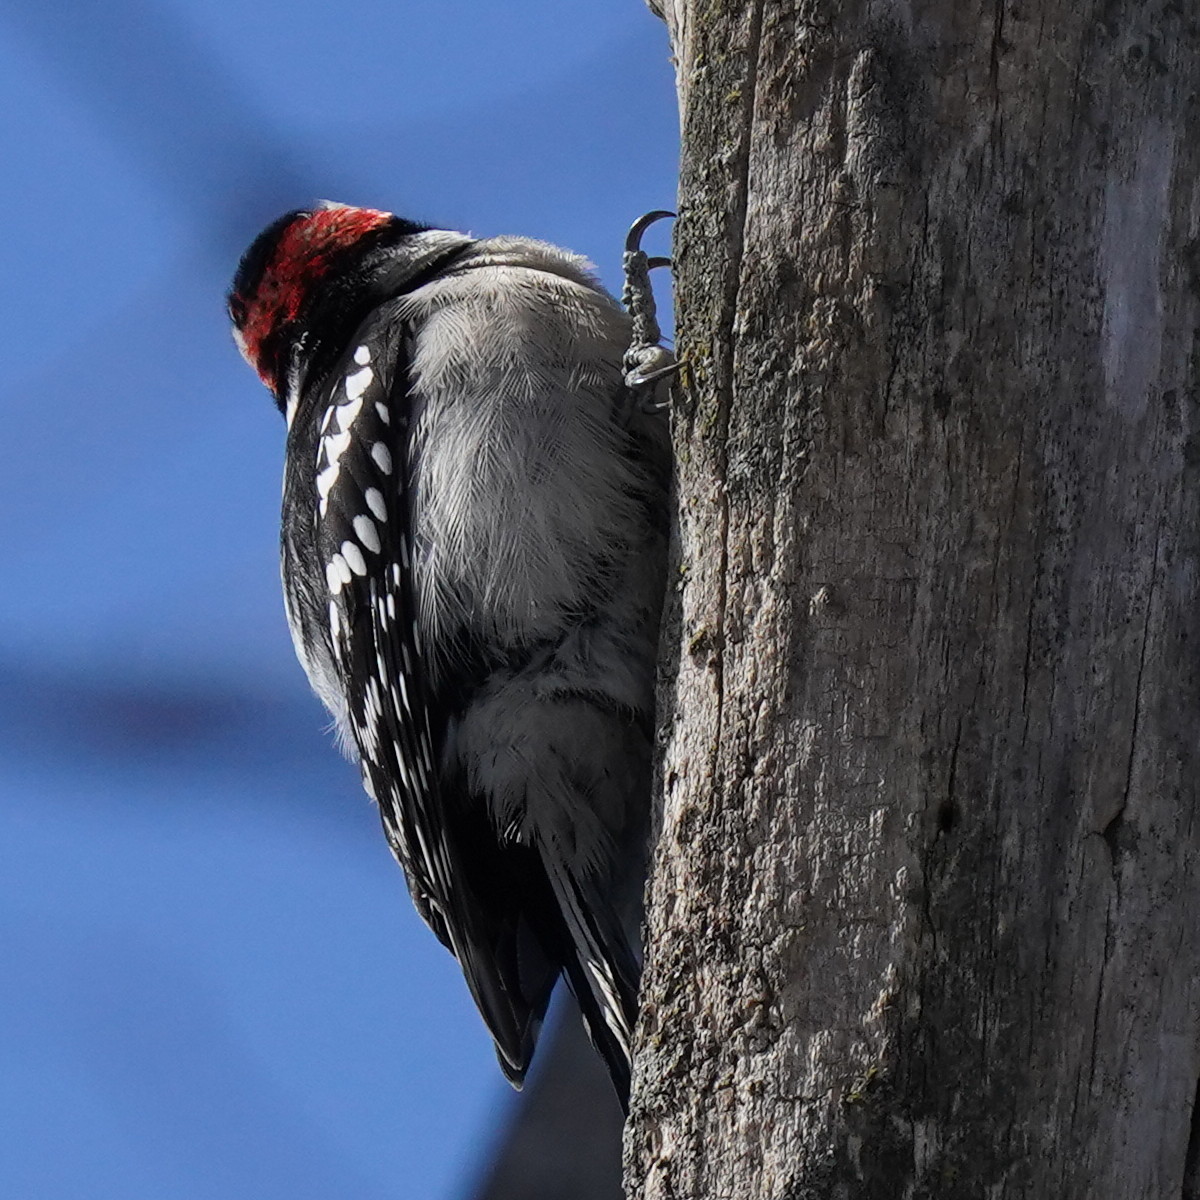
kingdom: Animalia
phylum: Chordata
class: Aves
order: Piciformes
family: Picidae
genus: Dryobates
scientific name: Dryobates pubescens
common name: Downy woodpecker
